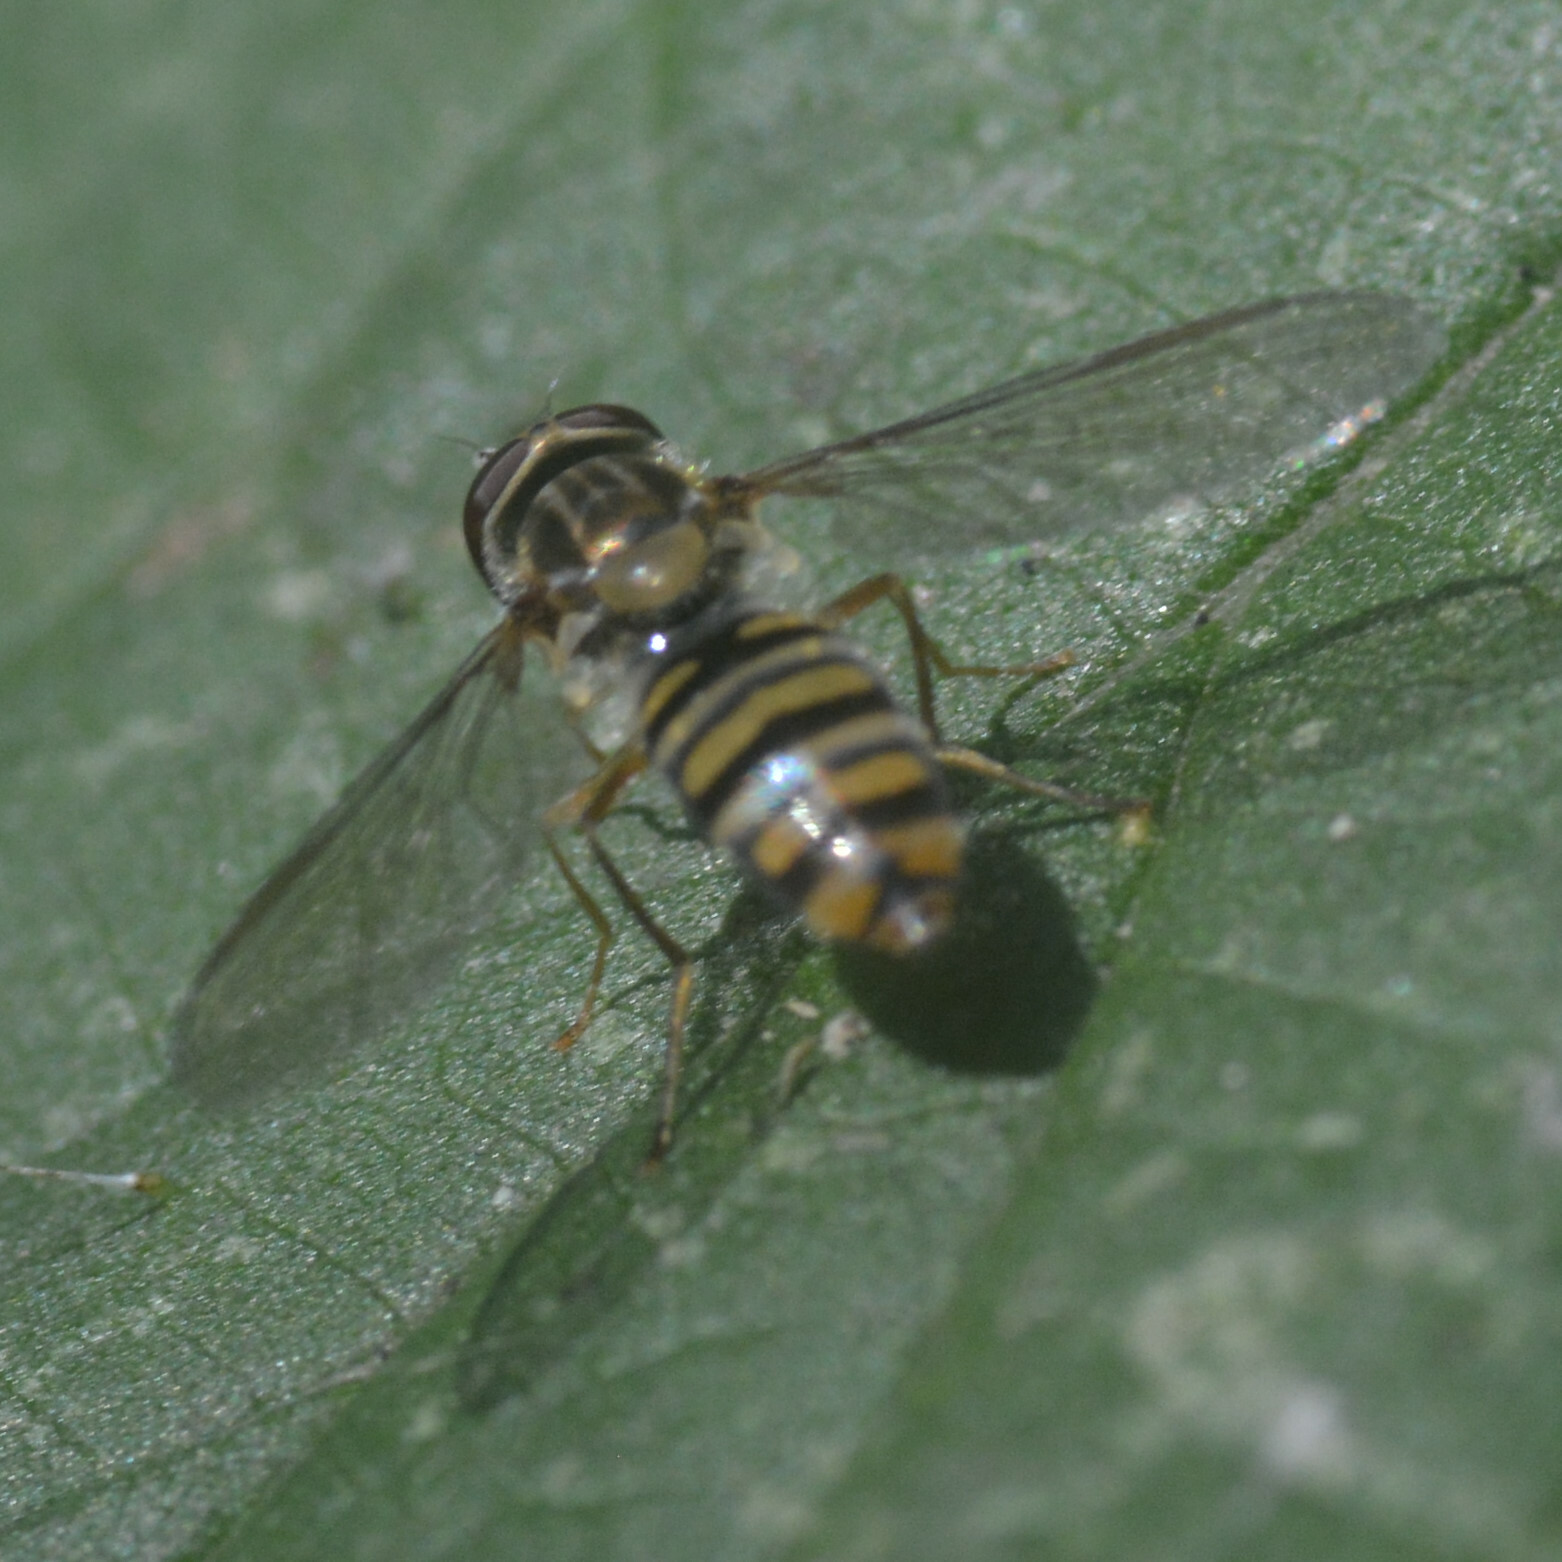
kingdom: Animalia
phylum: Arthropoda
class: Insecta
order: Diptera
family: Syrphidae
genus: Episyrphus
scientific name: Episyrphus balteatus
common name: Marmalade hoverfly
